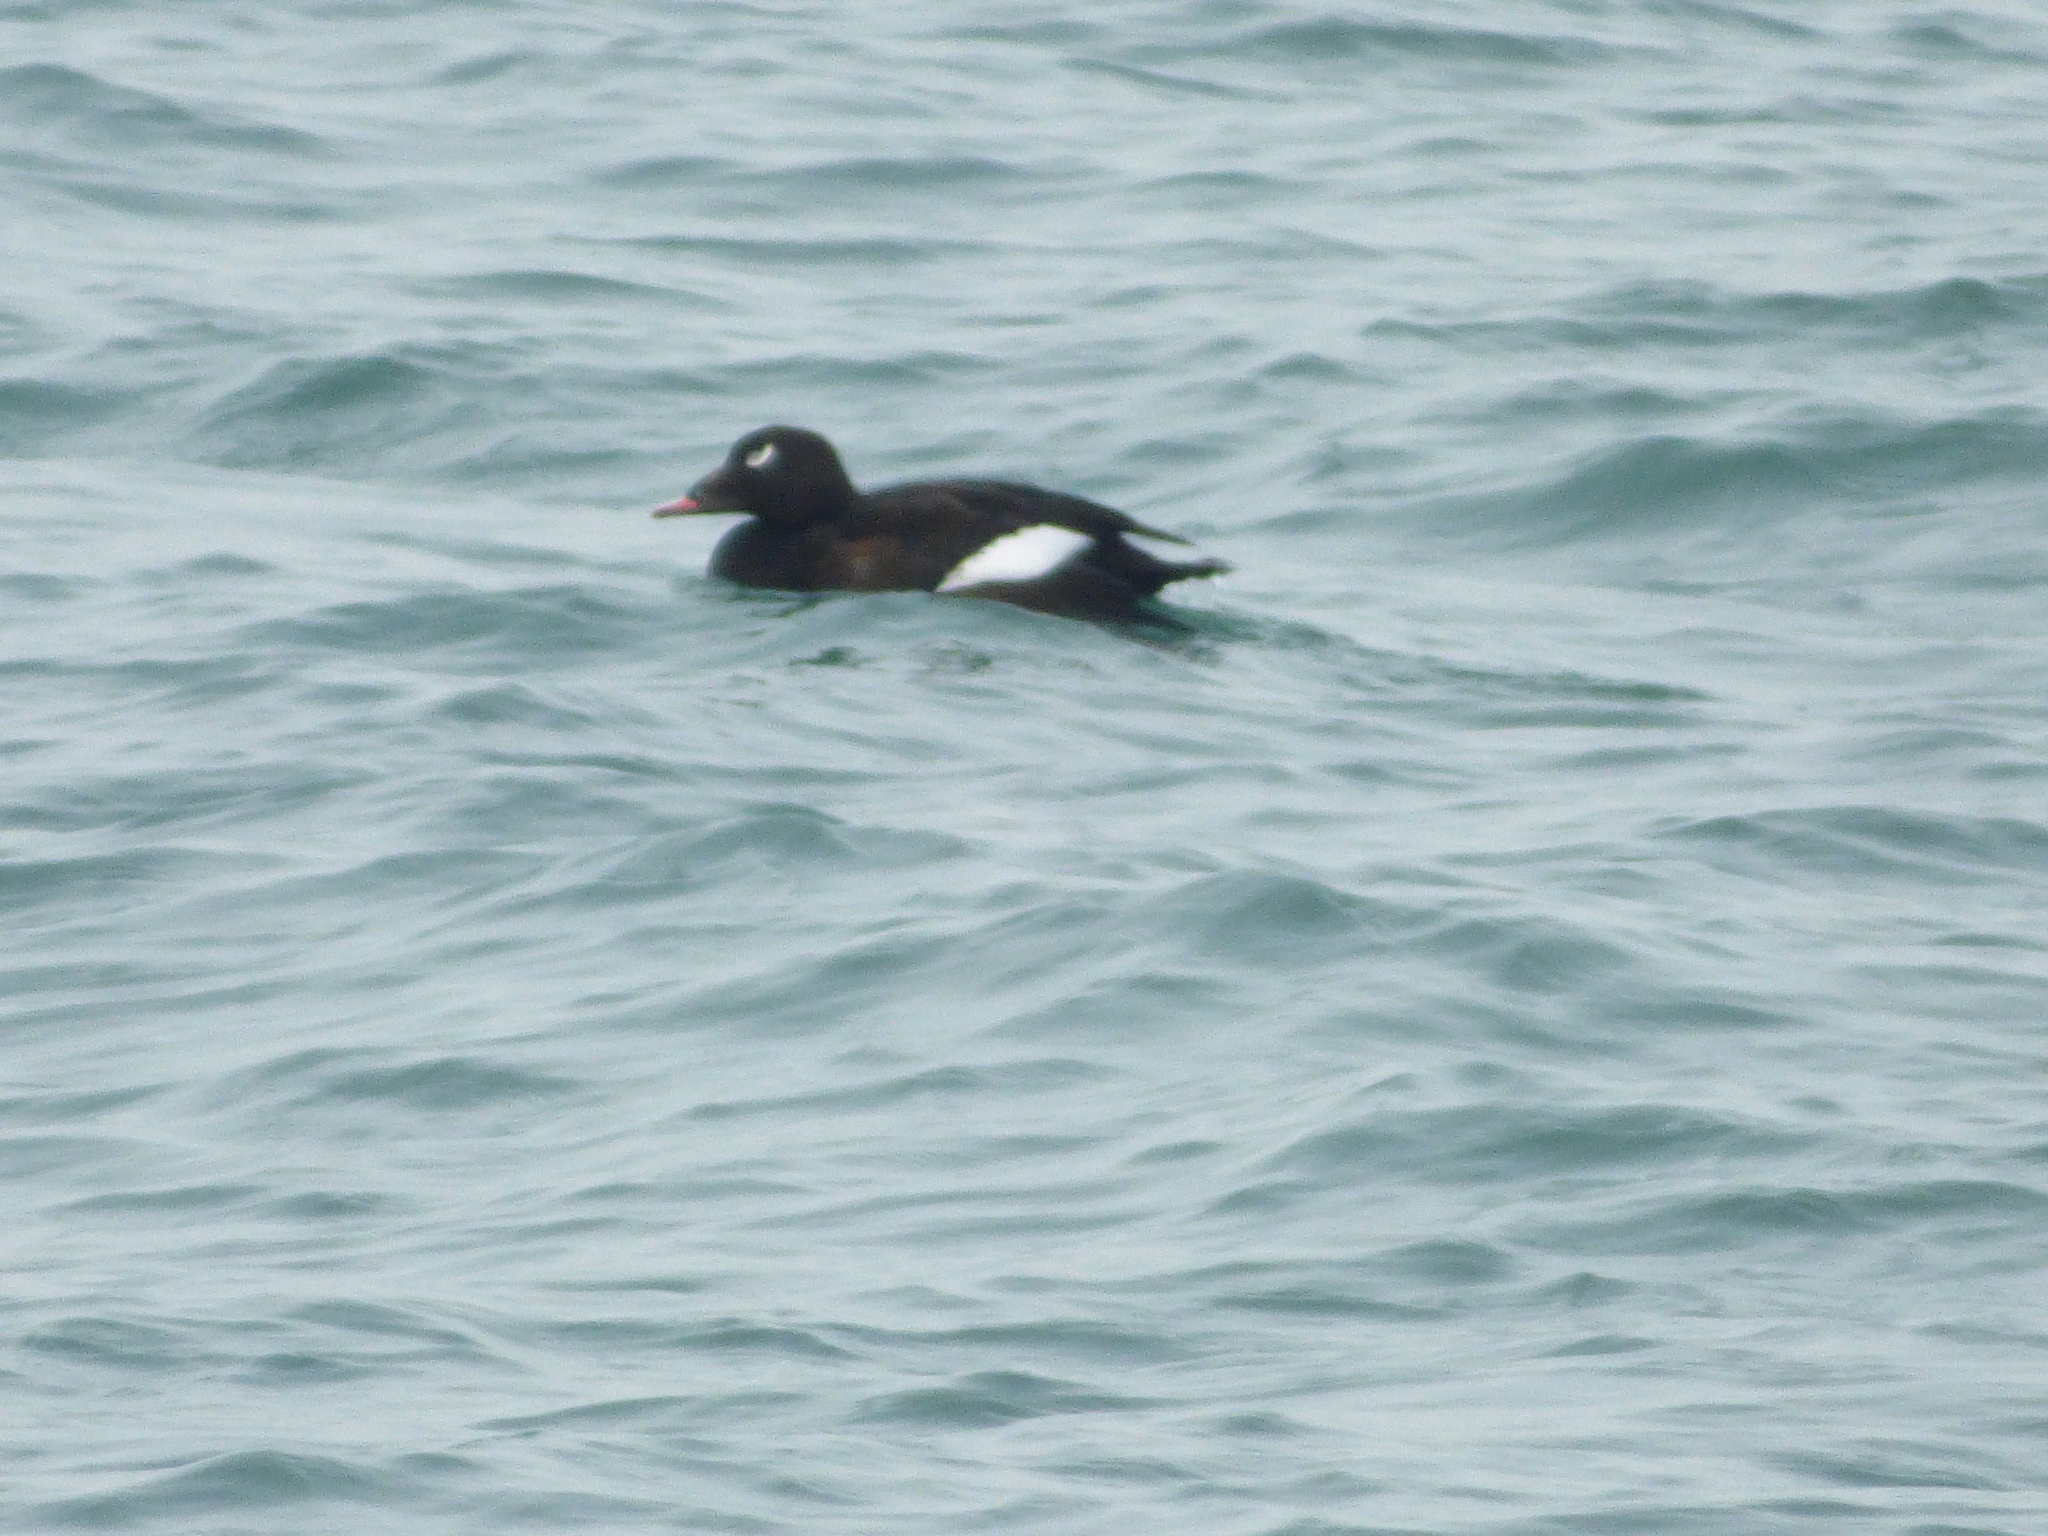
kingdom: Animalia
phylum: Chordata
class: Aves
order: Anseriformes
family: Anatidae
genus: Melanitta
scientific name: Melanitta deglandi
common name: White-winged scoter
